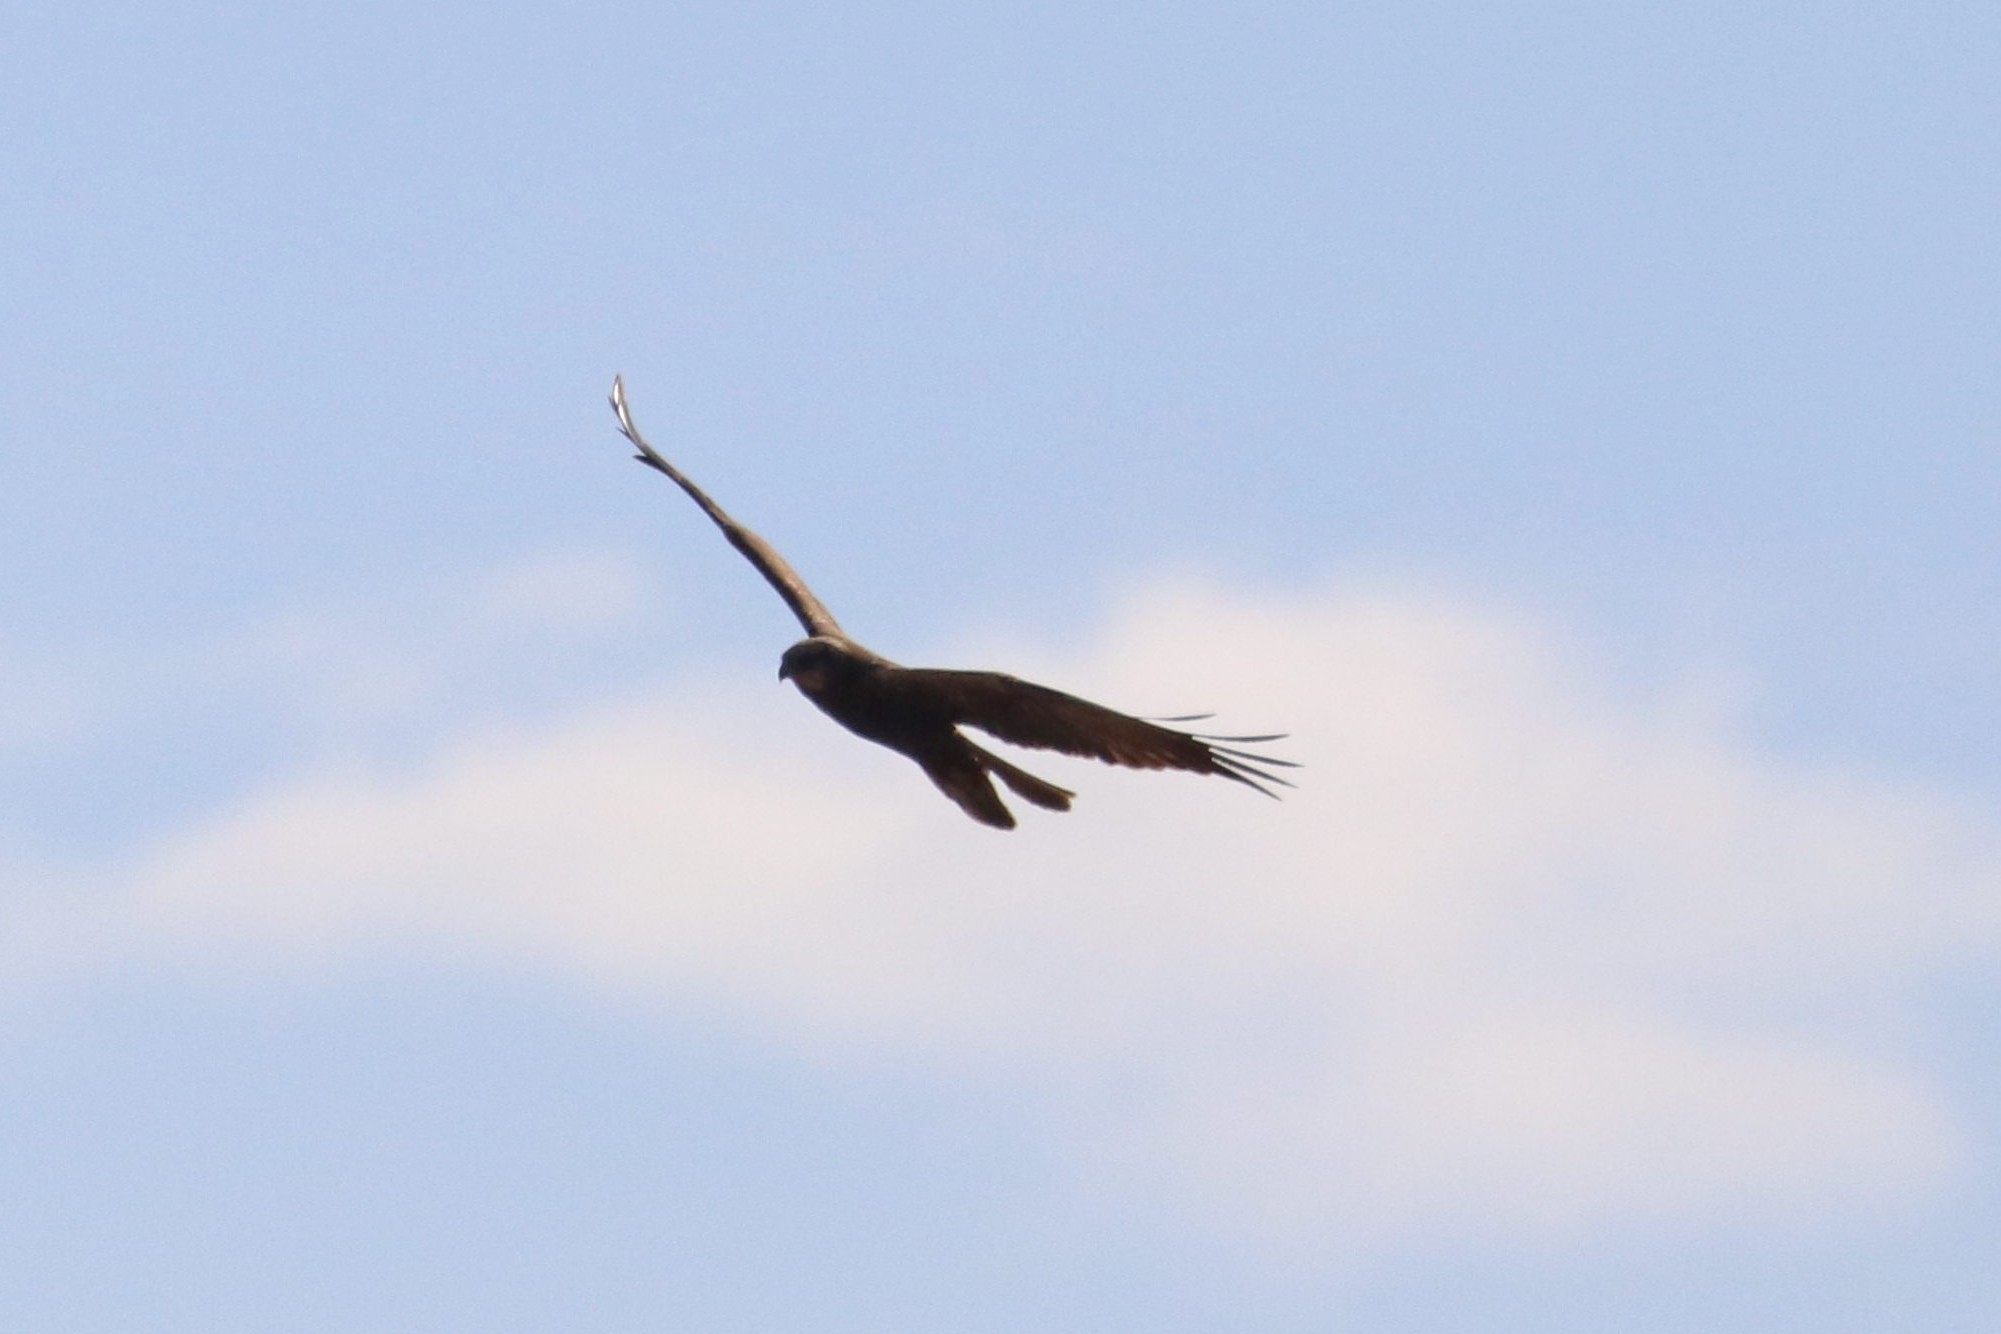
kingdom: Animalia
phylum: Chordata
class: Aves
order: Accipitriformes
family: Accipitridae
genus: Circus
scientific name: Circus aeruginosus
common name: Western marsh harrier
